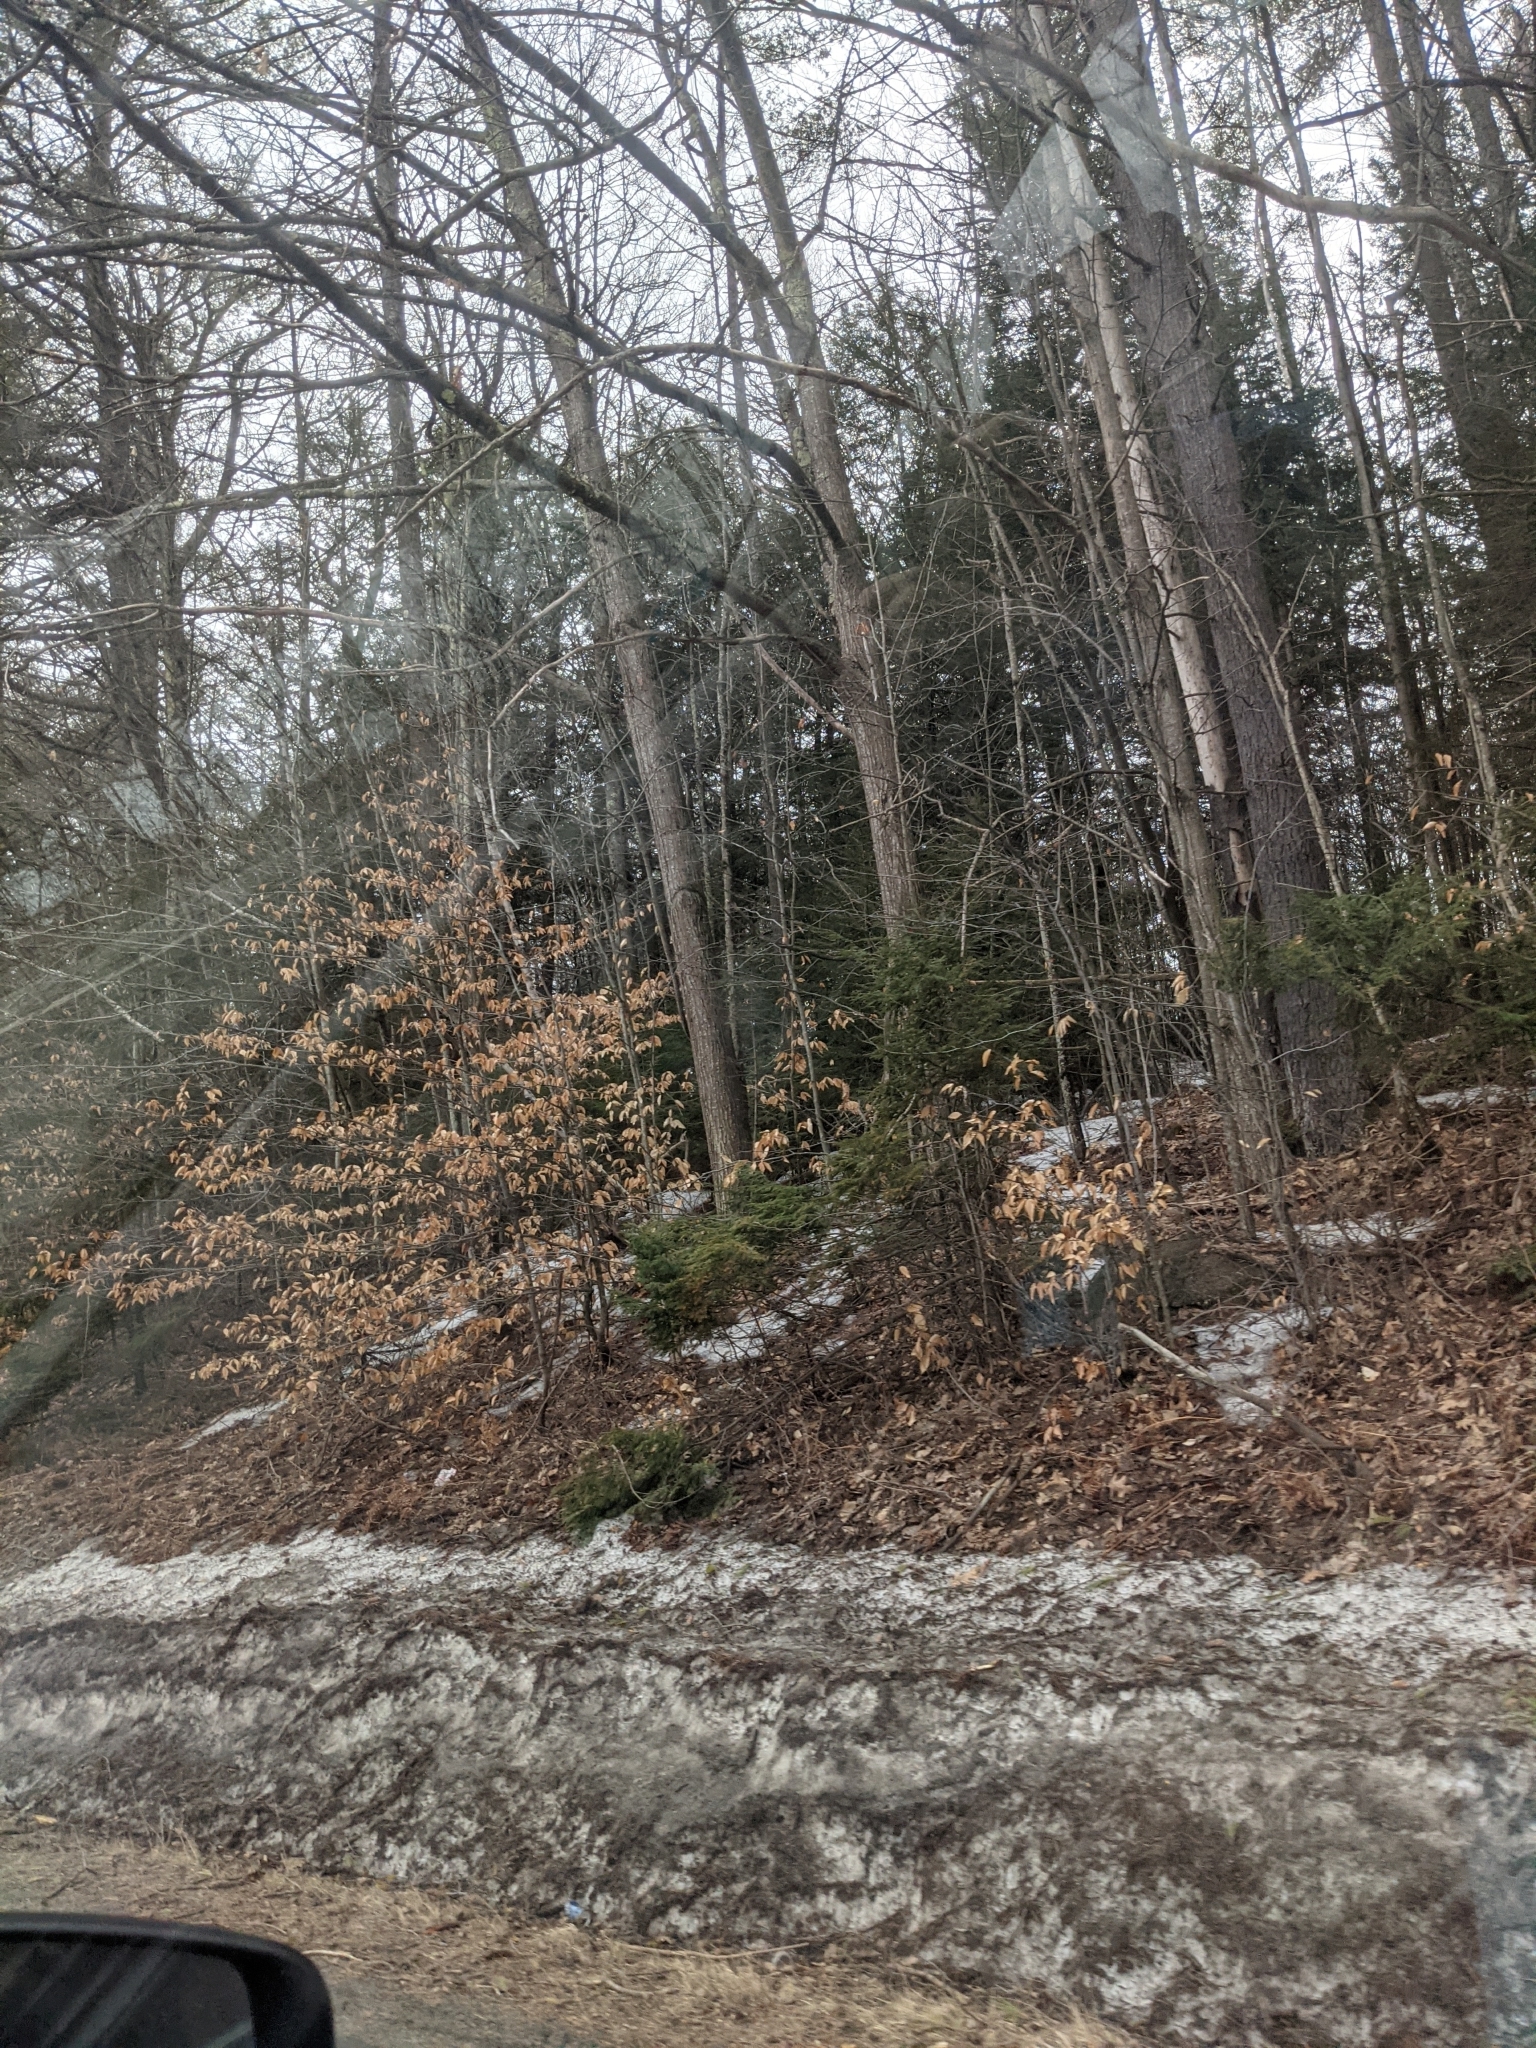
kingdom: Plantae
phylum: Tracheophyta
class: Magnoliopsida
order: Fagales
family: Fagaceae
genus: Fagus
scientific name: Fagus grandifolia
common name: American beech
